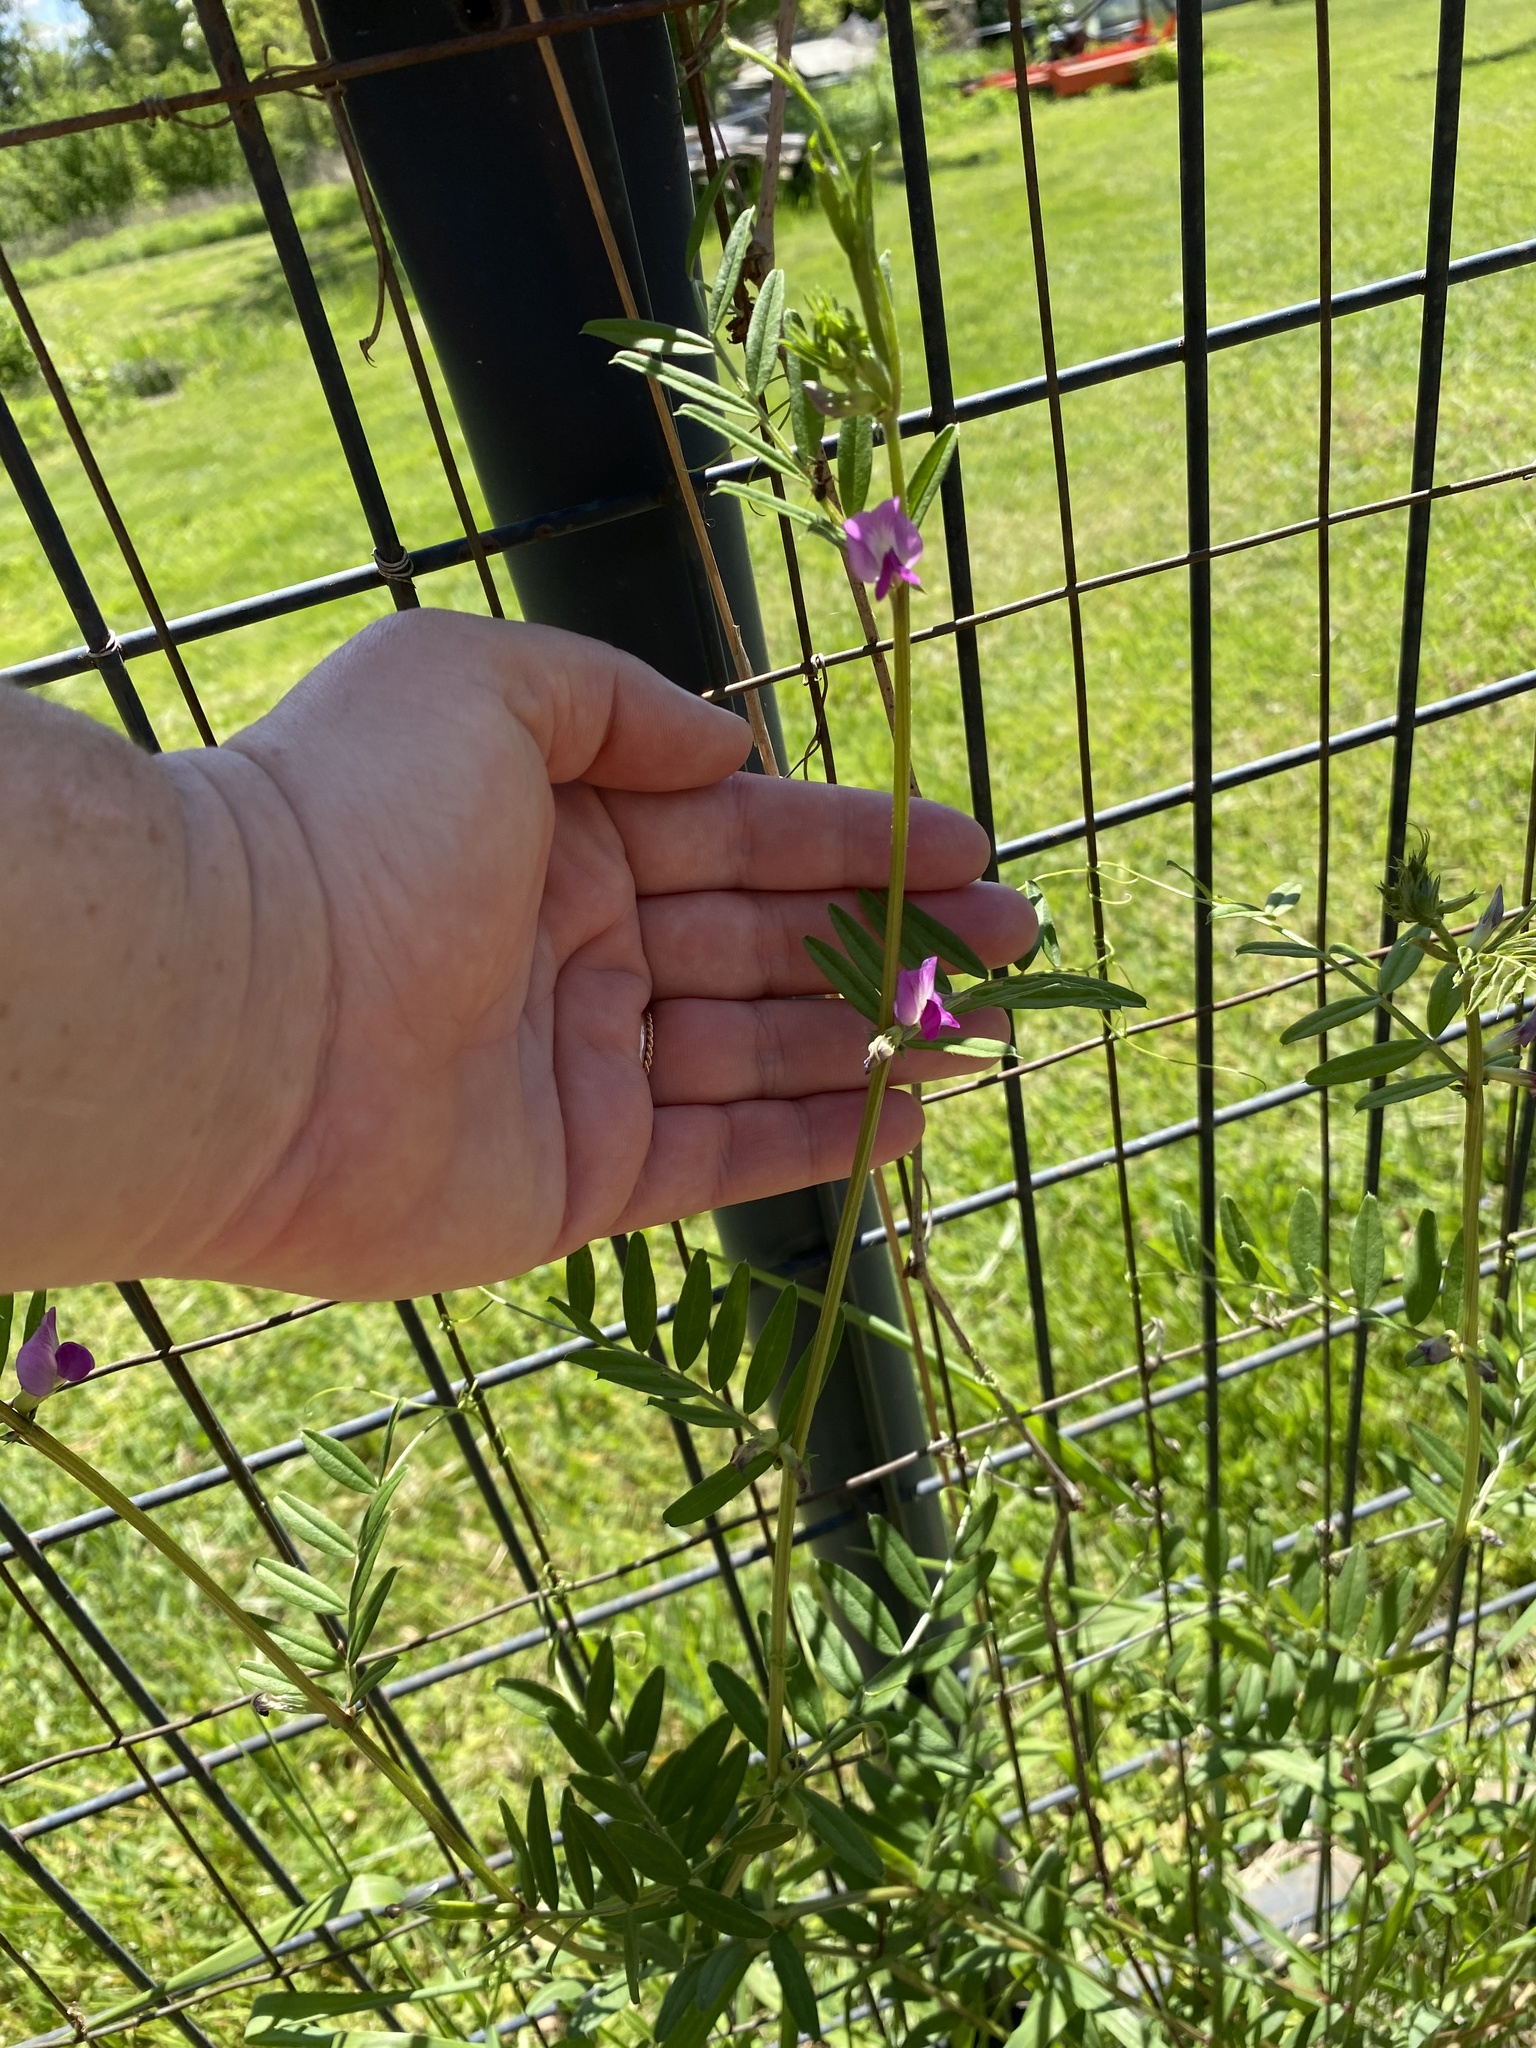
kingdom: Plantae
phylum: Tracheophyta
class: Magnoliopsida
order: Fabales
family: Fabaceae
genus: Vicia
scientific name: Vicia sativa
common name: Garden vetch
